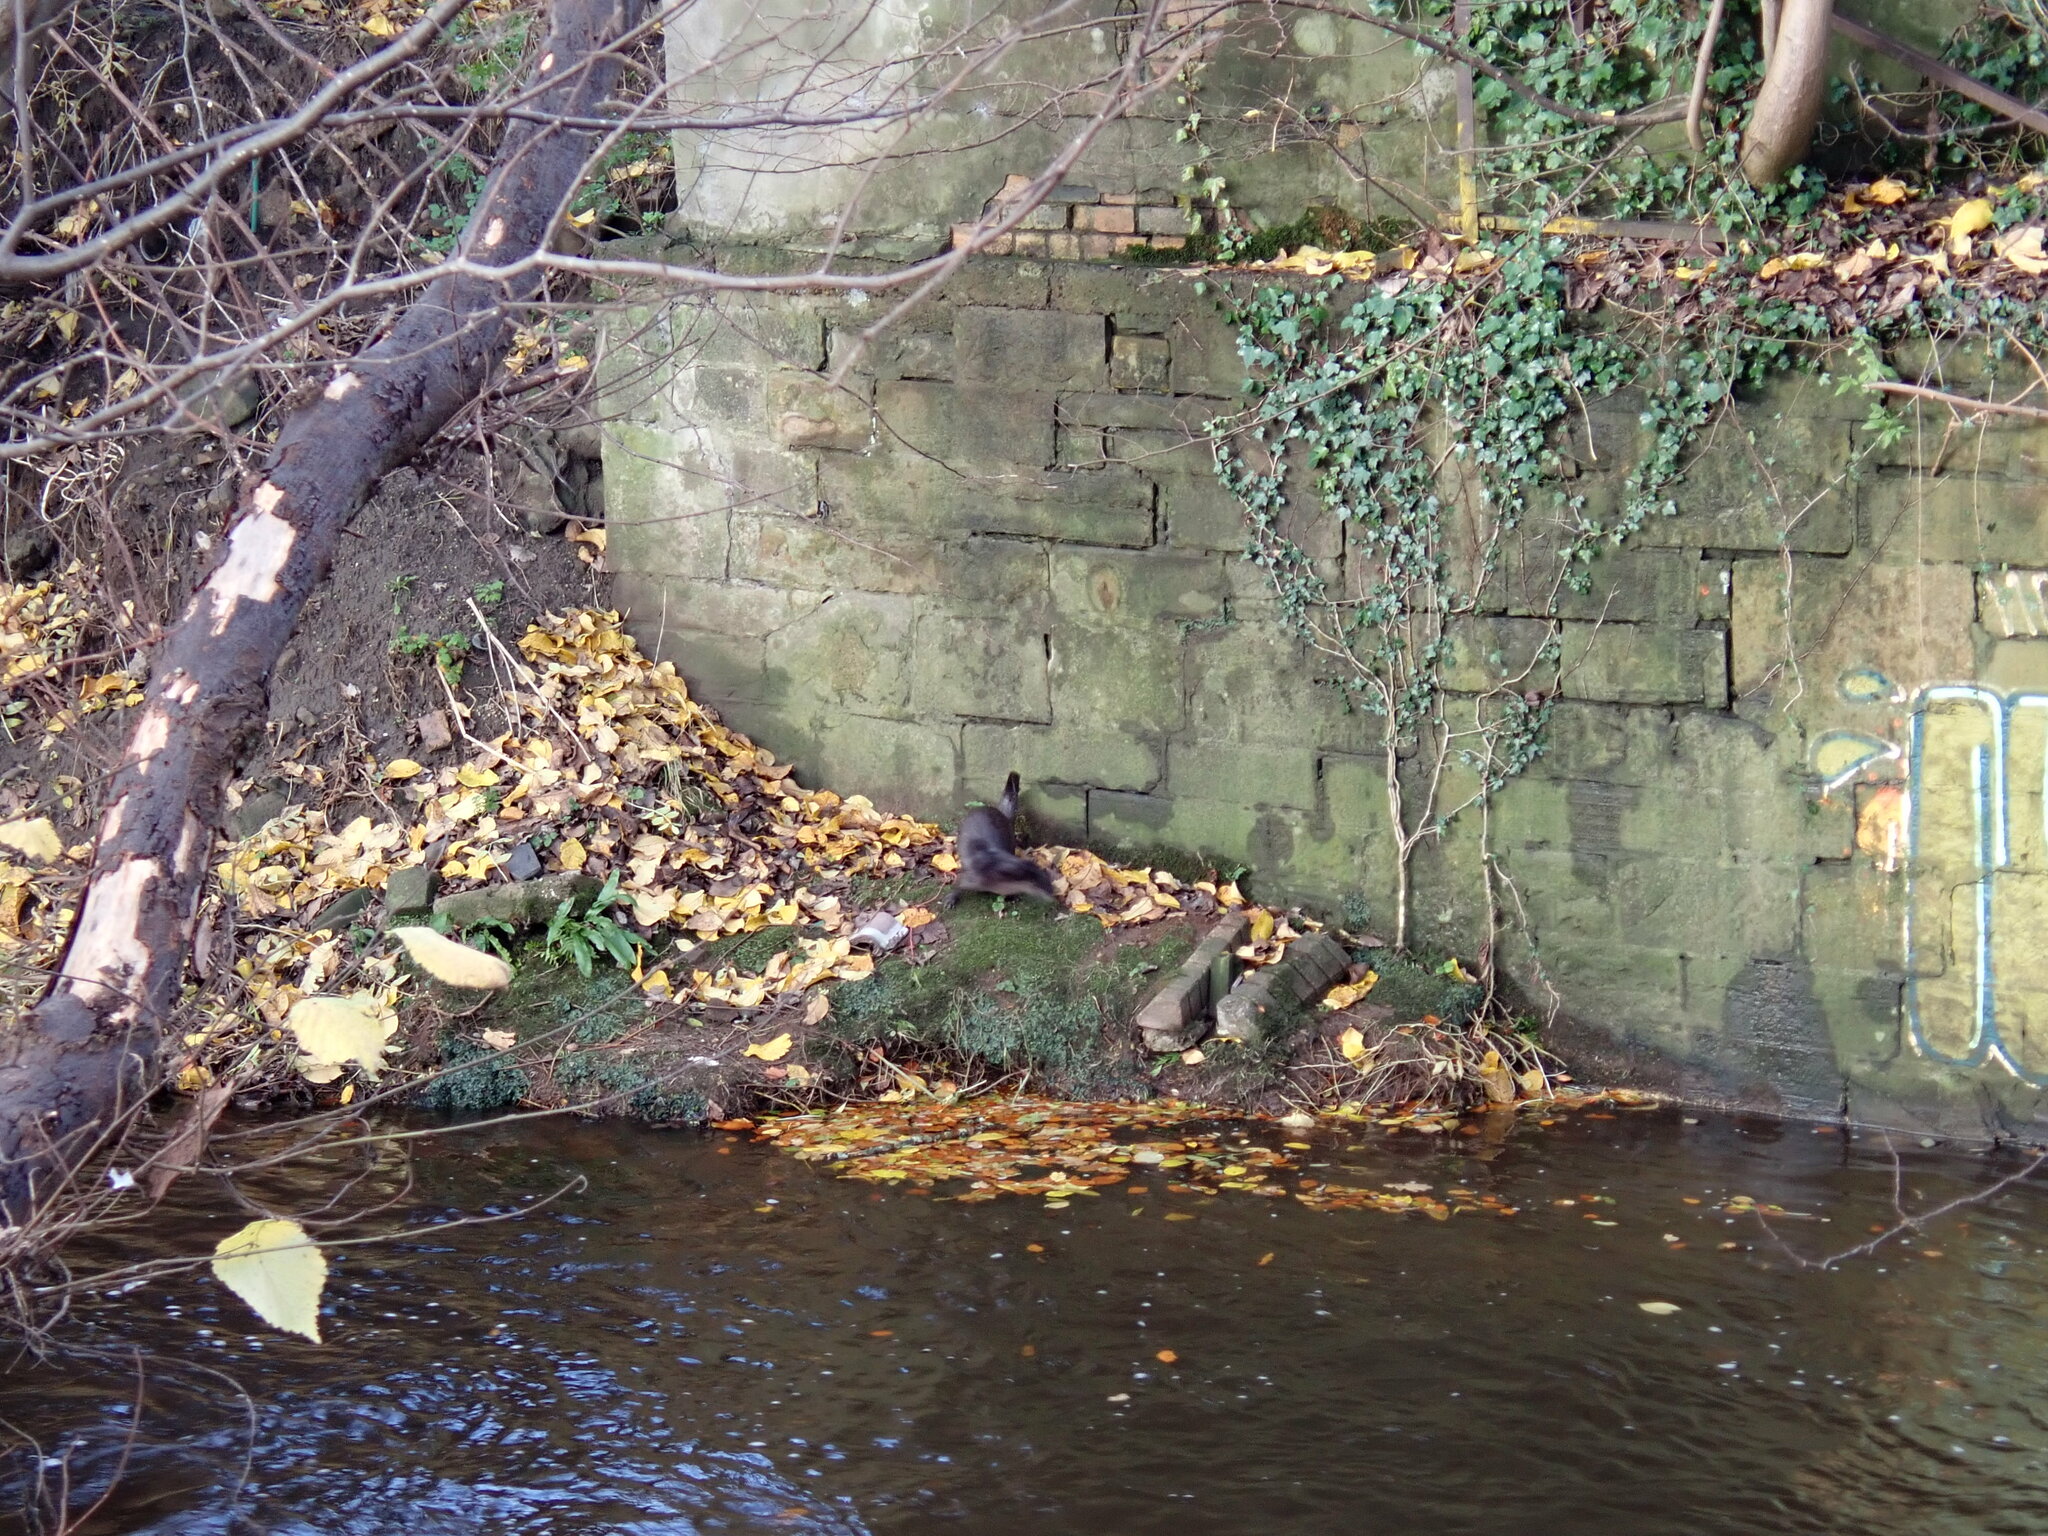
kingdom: Animalia
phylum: Chordata
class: Mammalia
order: Carnivora
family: Mustelidae
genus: Lutra
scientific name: Lutra lutra
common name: European otter
